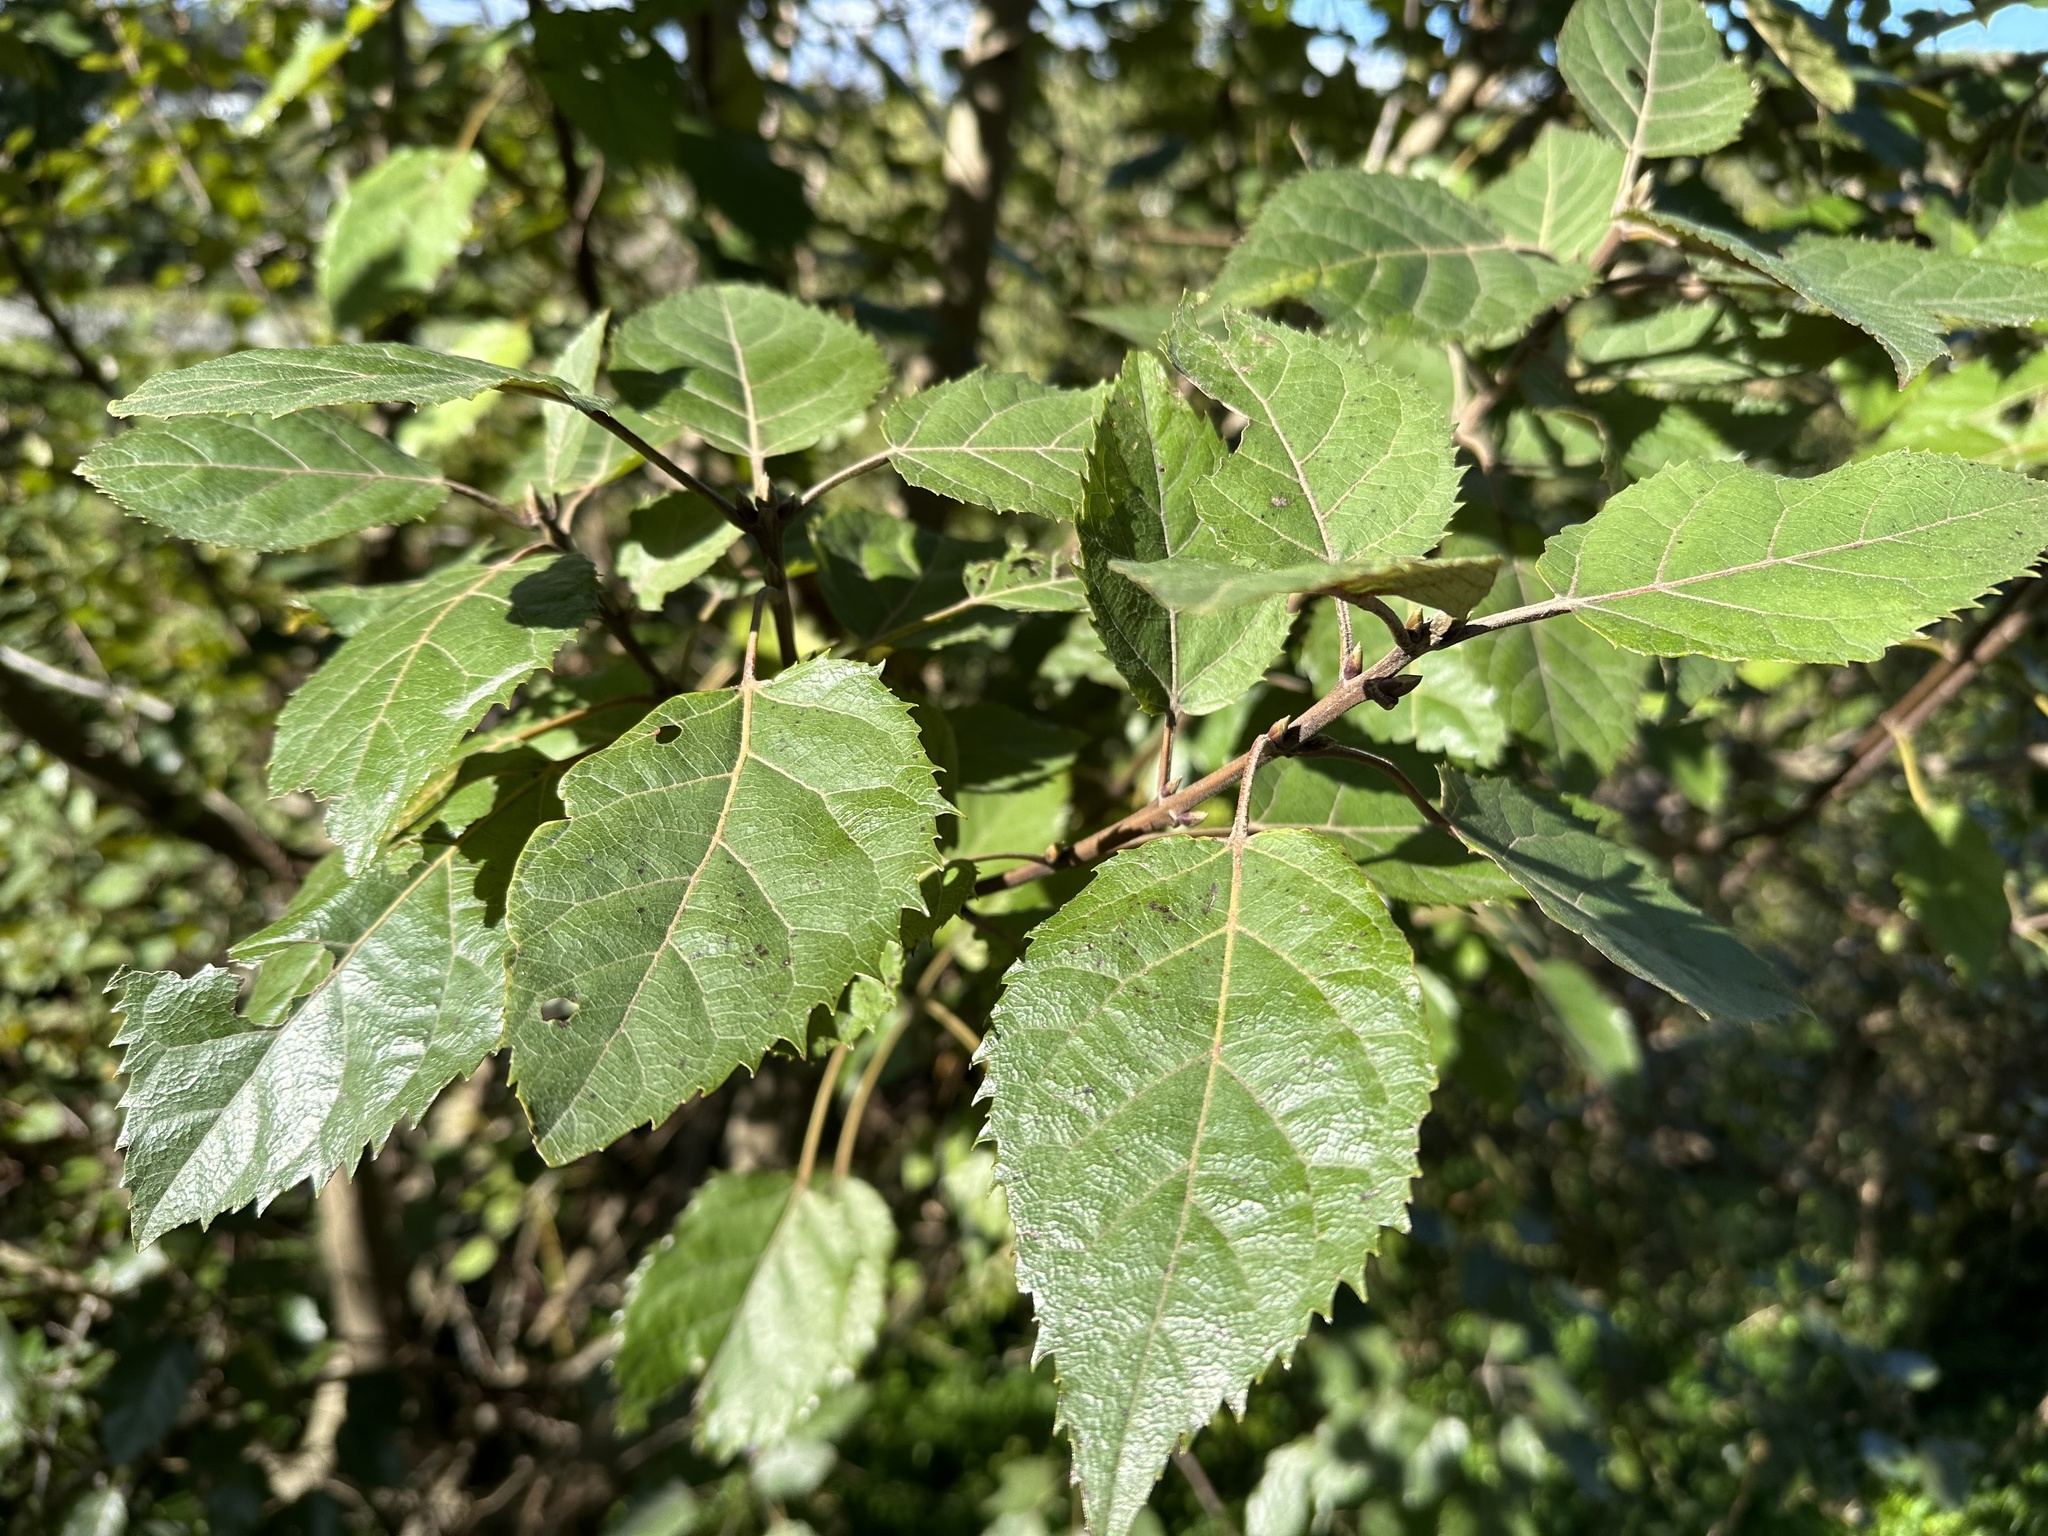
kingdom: Plantae
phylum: Tracheophyta
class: Magnoliopsida
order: Oxalidales
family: Elaeocarpaceae
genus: Aristotelia
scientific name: Aristotelia serrata
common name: New zealand wineberry
